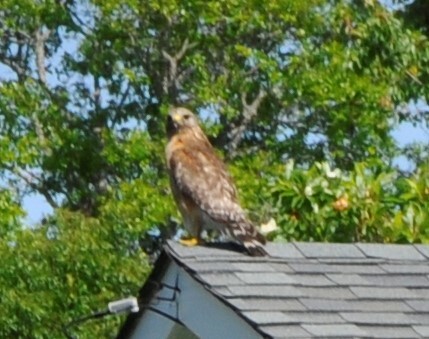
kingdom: Animalia
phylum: Chordata
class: Aves
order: Accipitriformes
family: Accipitridae
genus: Buteo
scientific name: Buteo lineatus
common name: Red-shouldered hawk
